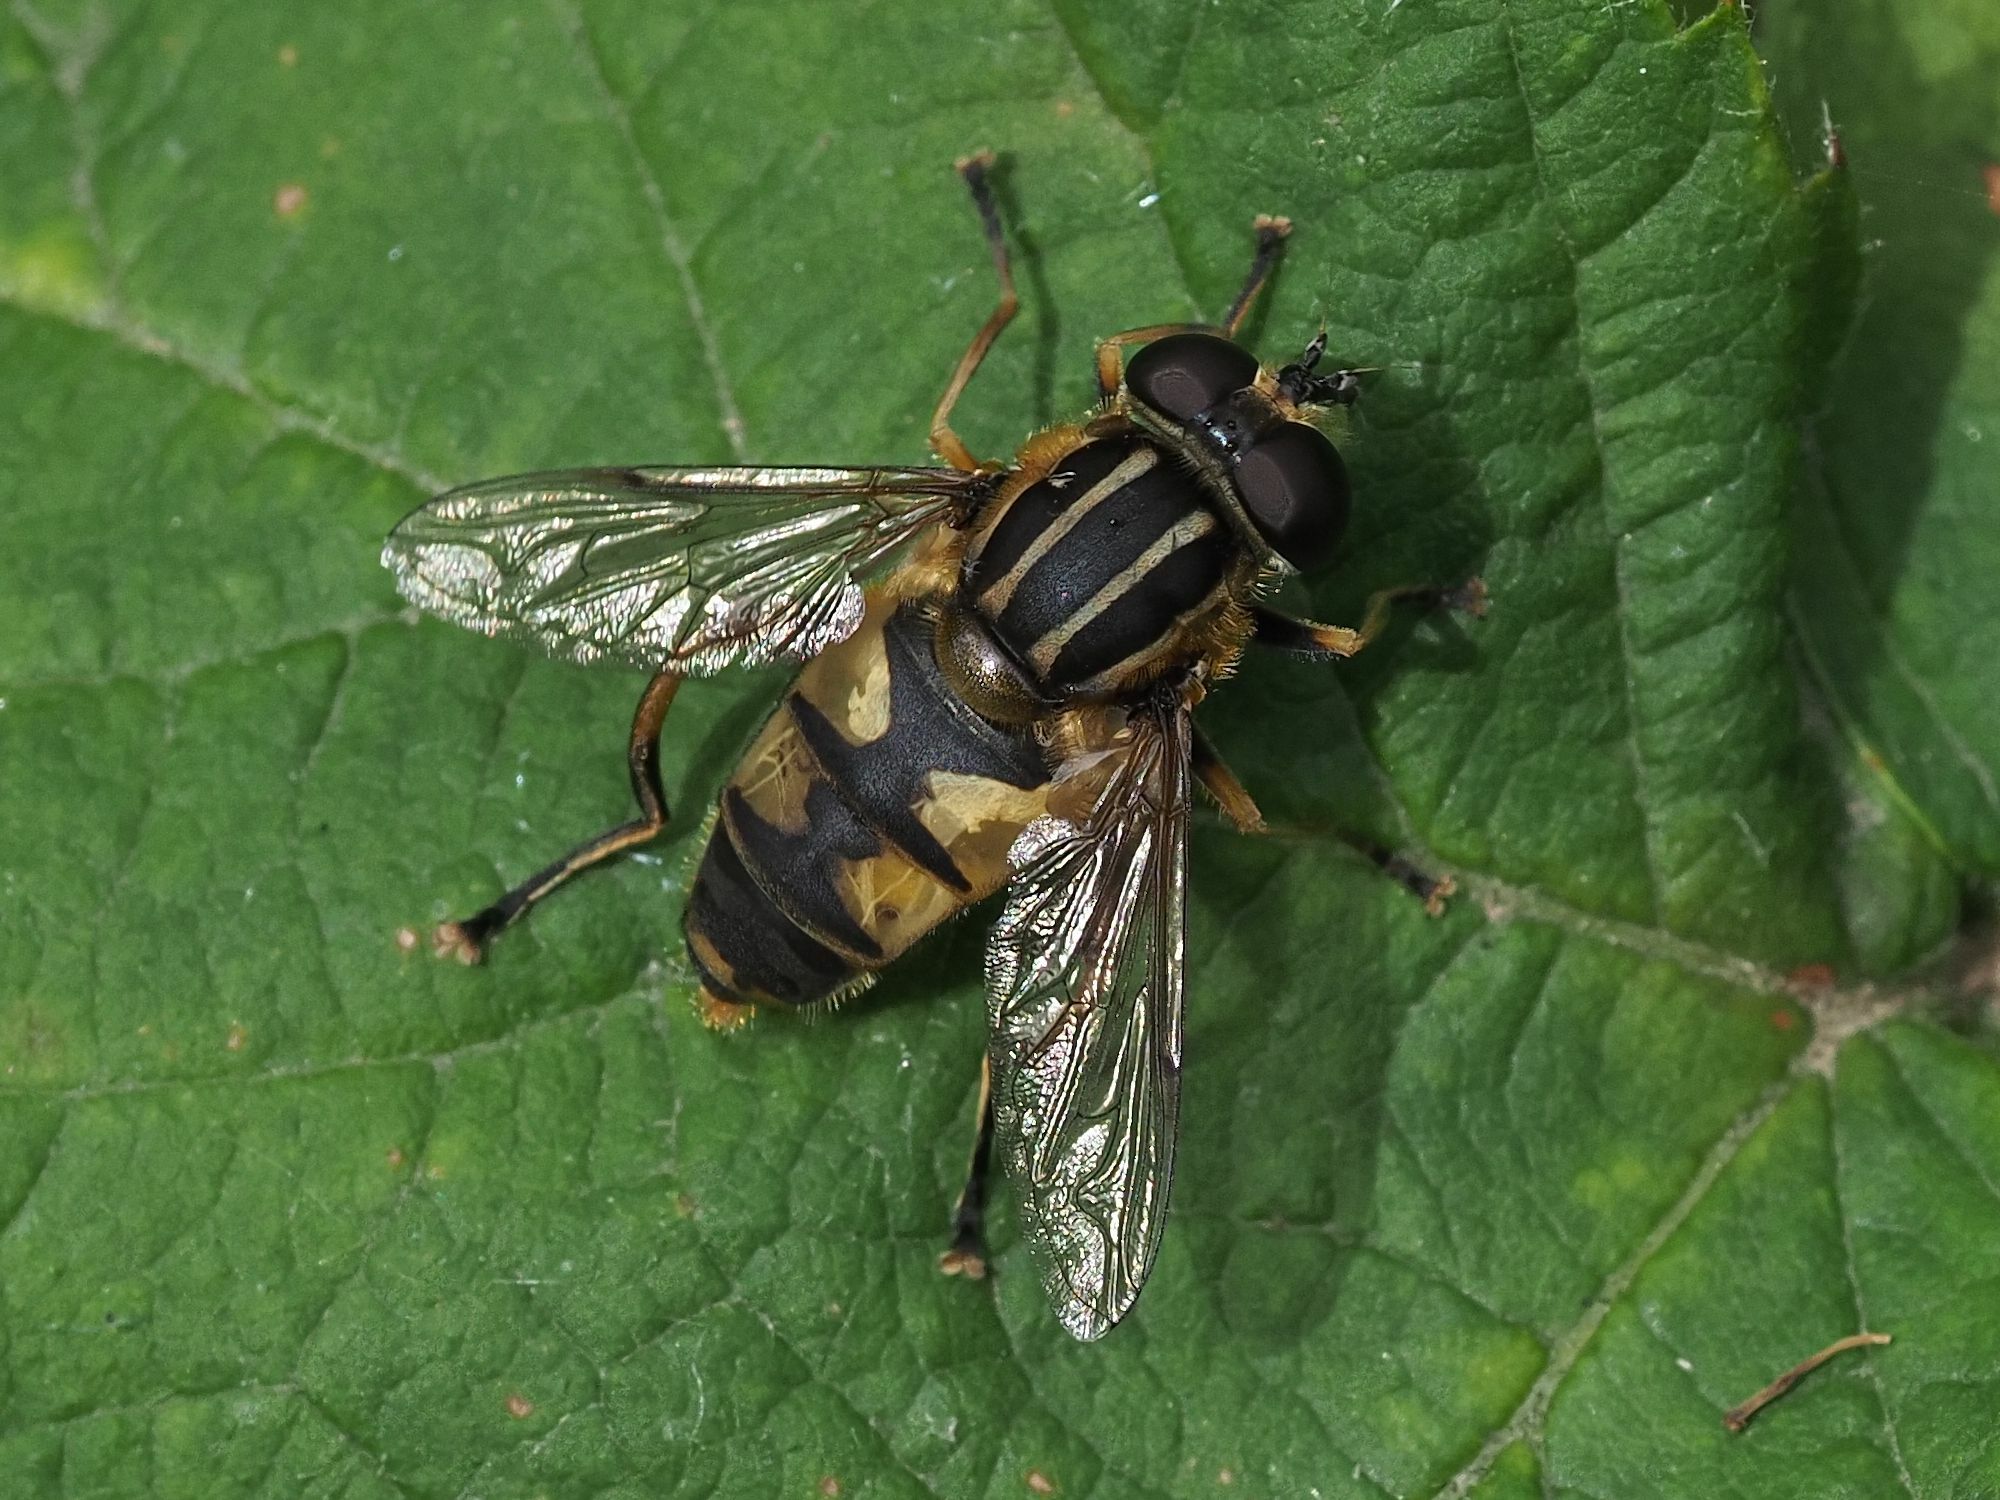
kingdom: Animalia
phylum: Arthropoda
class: Insecta
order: Diptera
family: Syrphidae
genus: Helophilus
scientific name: Helophilus pendulus
